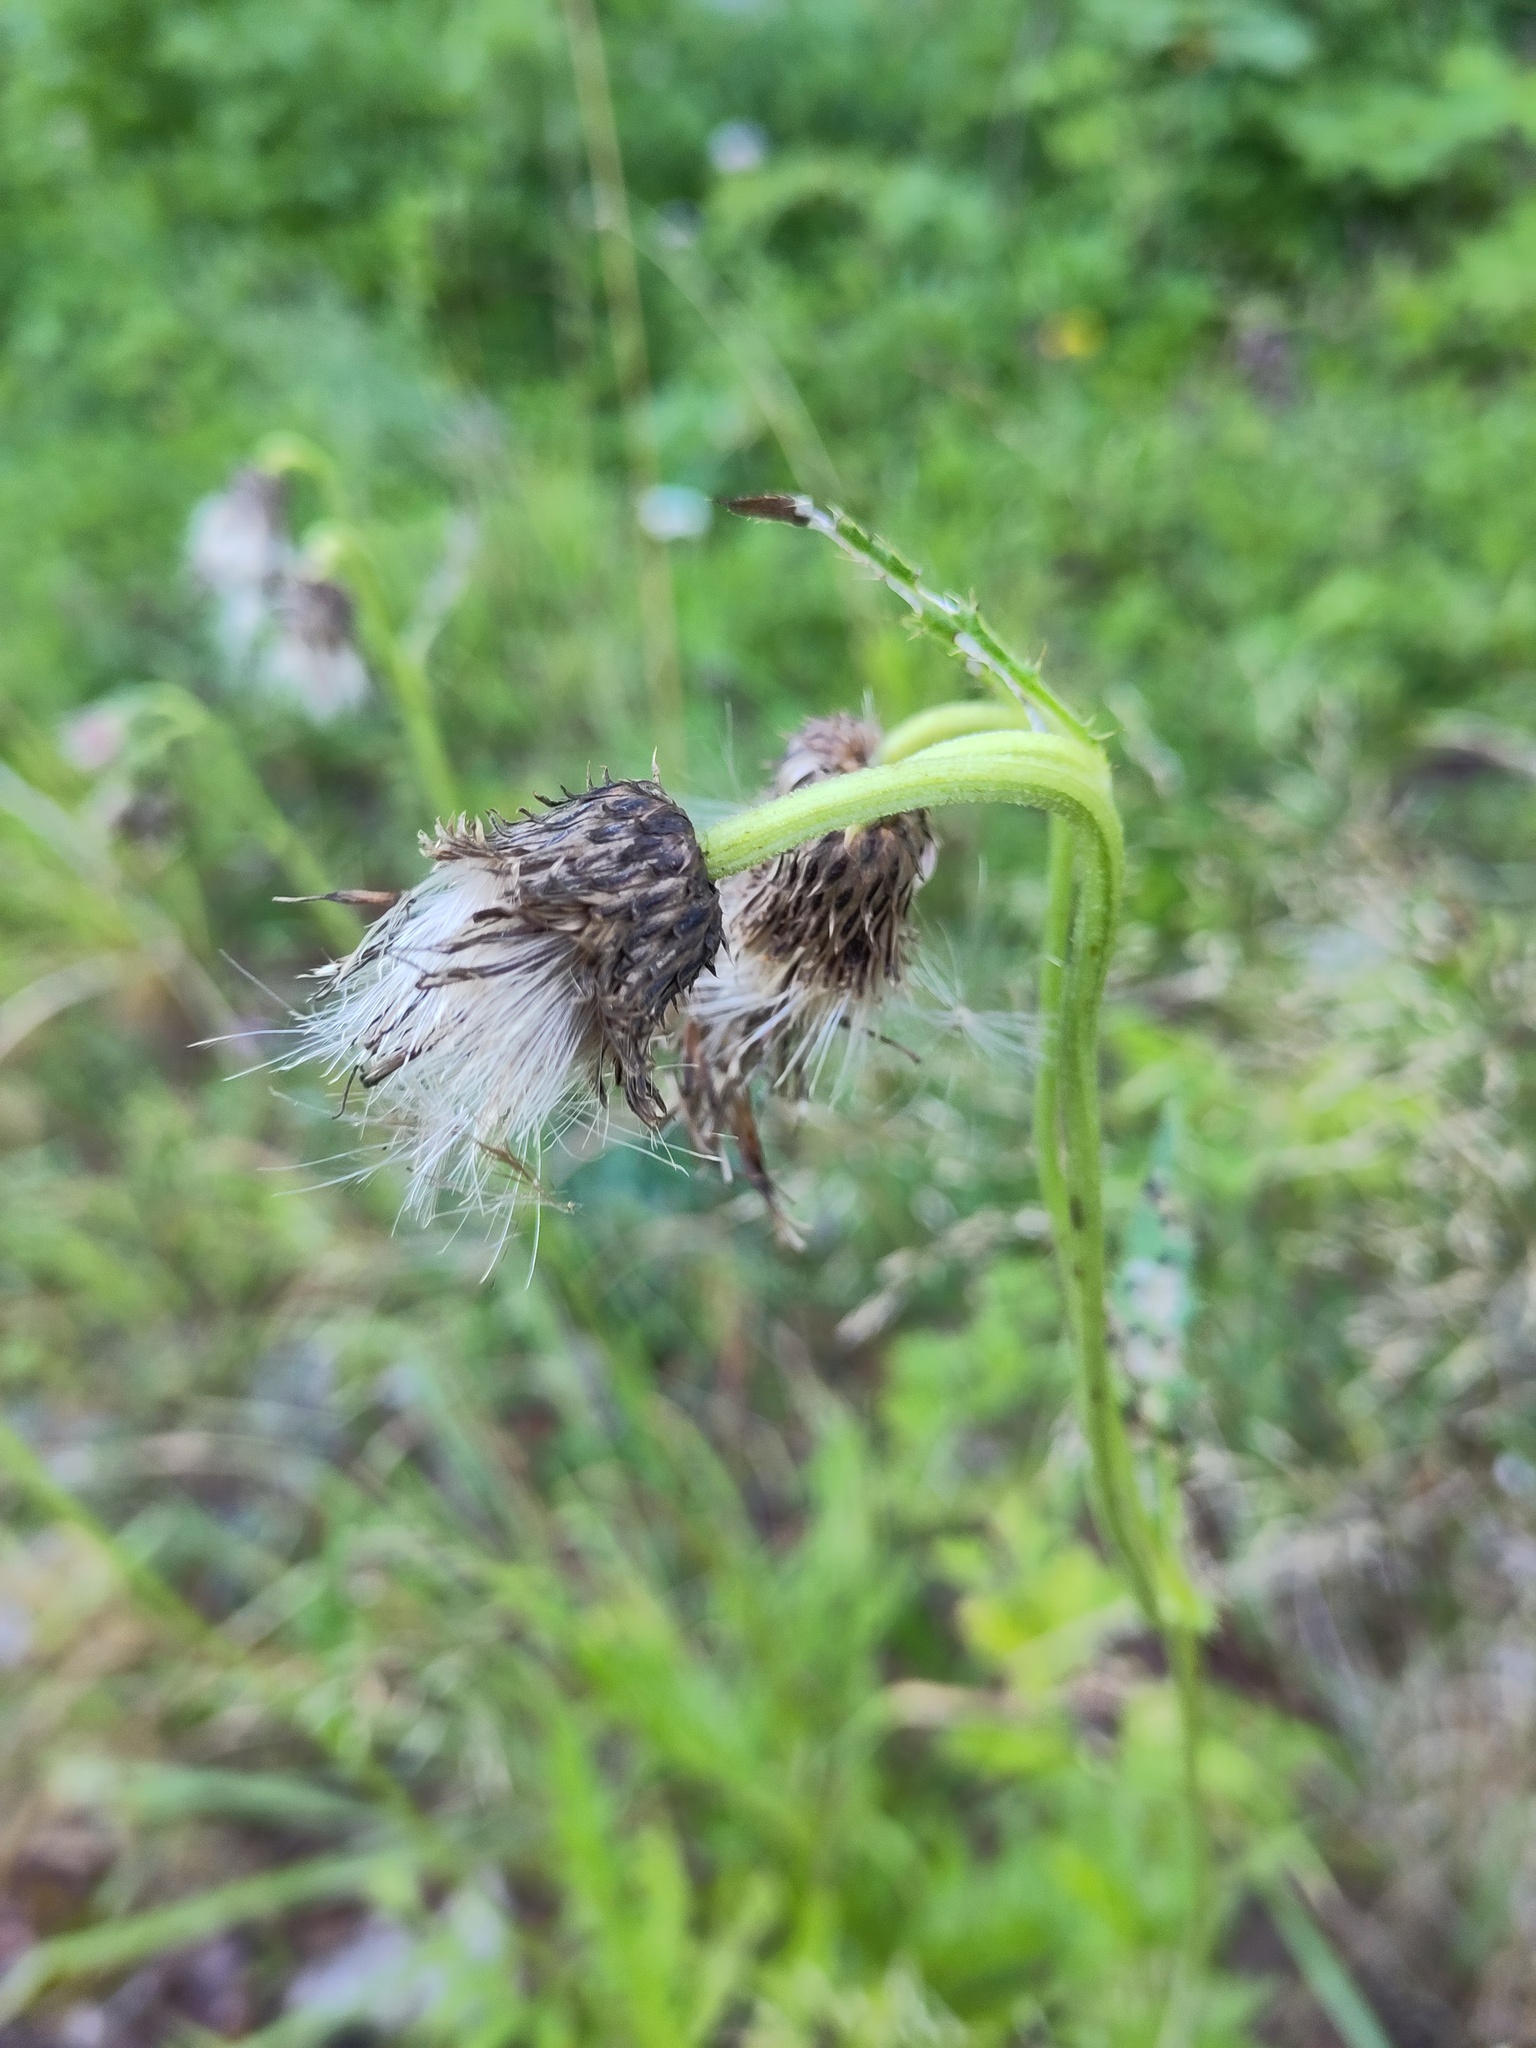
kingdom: Plantae
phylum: Tracheophyta
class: Magnoliopsida
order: Asterales
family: Asteraceae
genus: Cirsium
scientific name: Cirsium erisithales
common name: Yellow thistle
